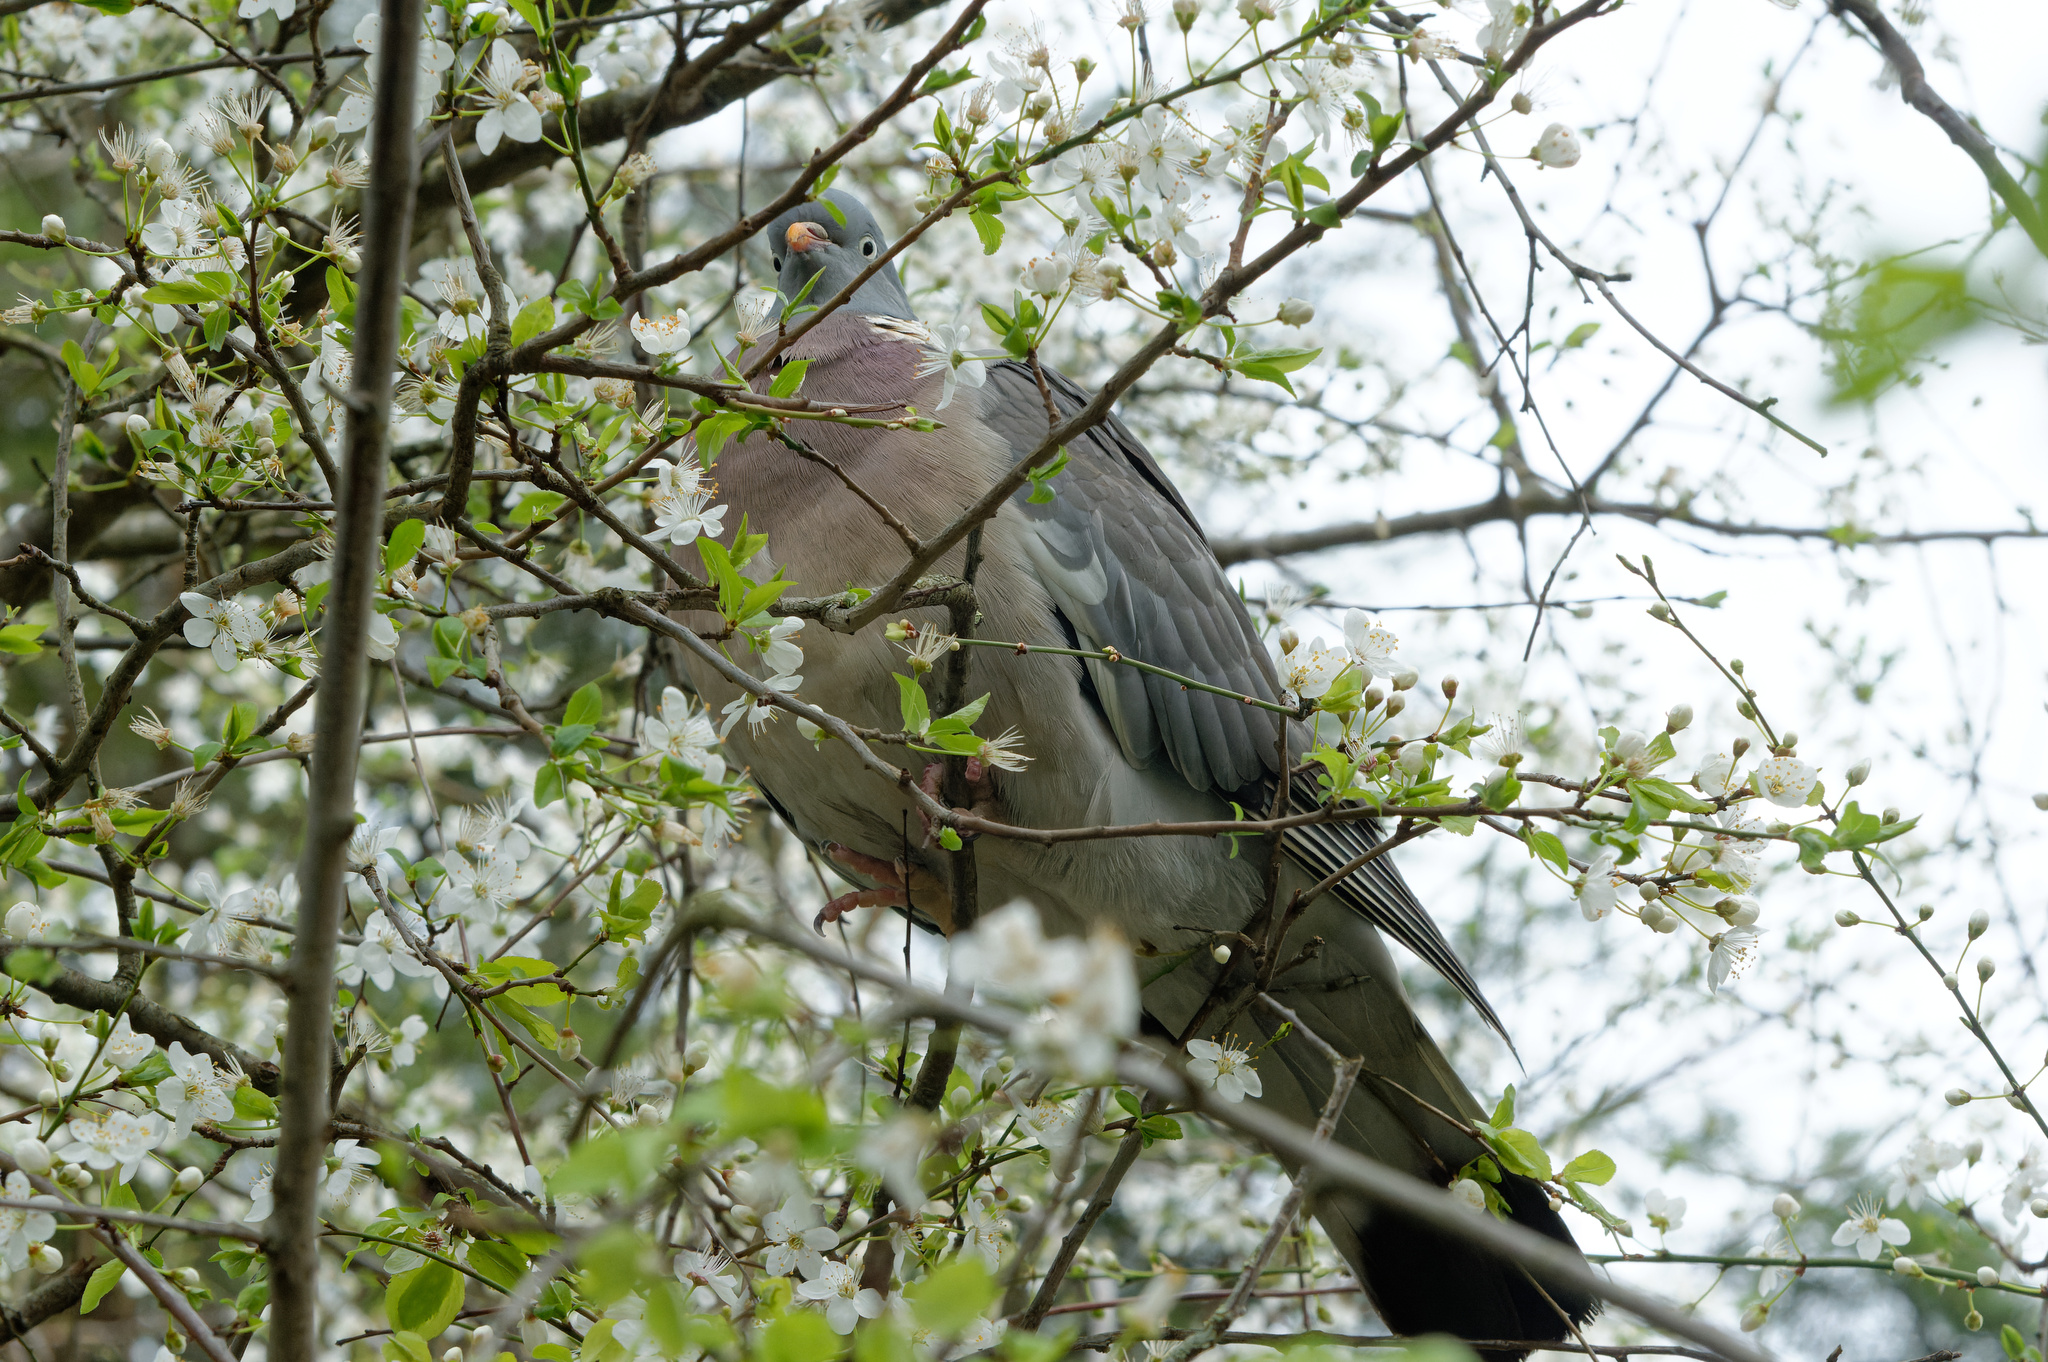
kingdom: Animalia
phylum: Chordata
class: Aves
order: Columbiformes
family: Columbidae
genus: Columba
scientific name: Columba palumbus
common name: Common wood pigeon
